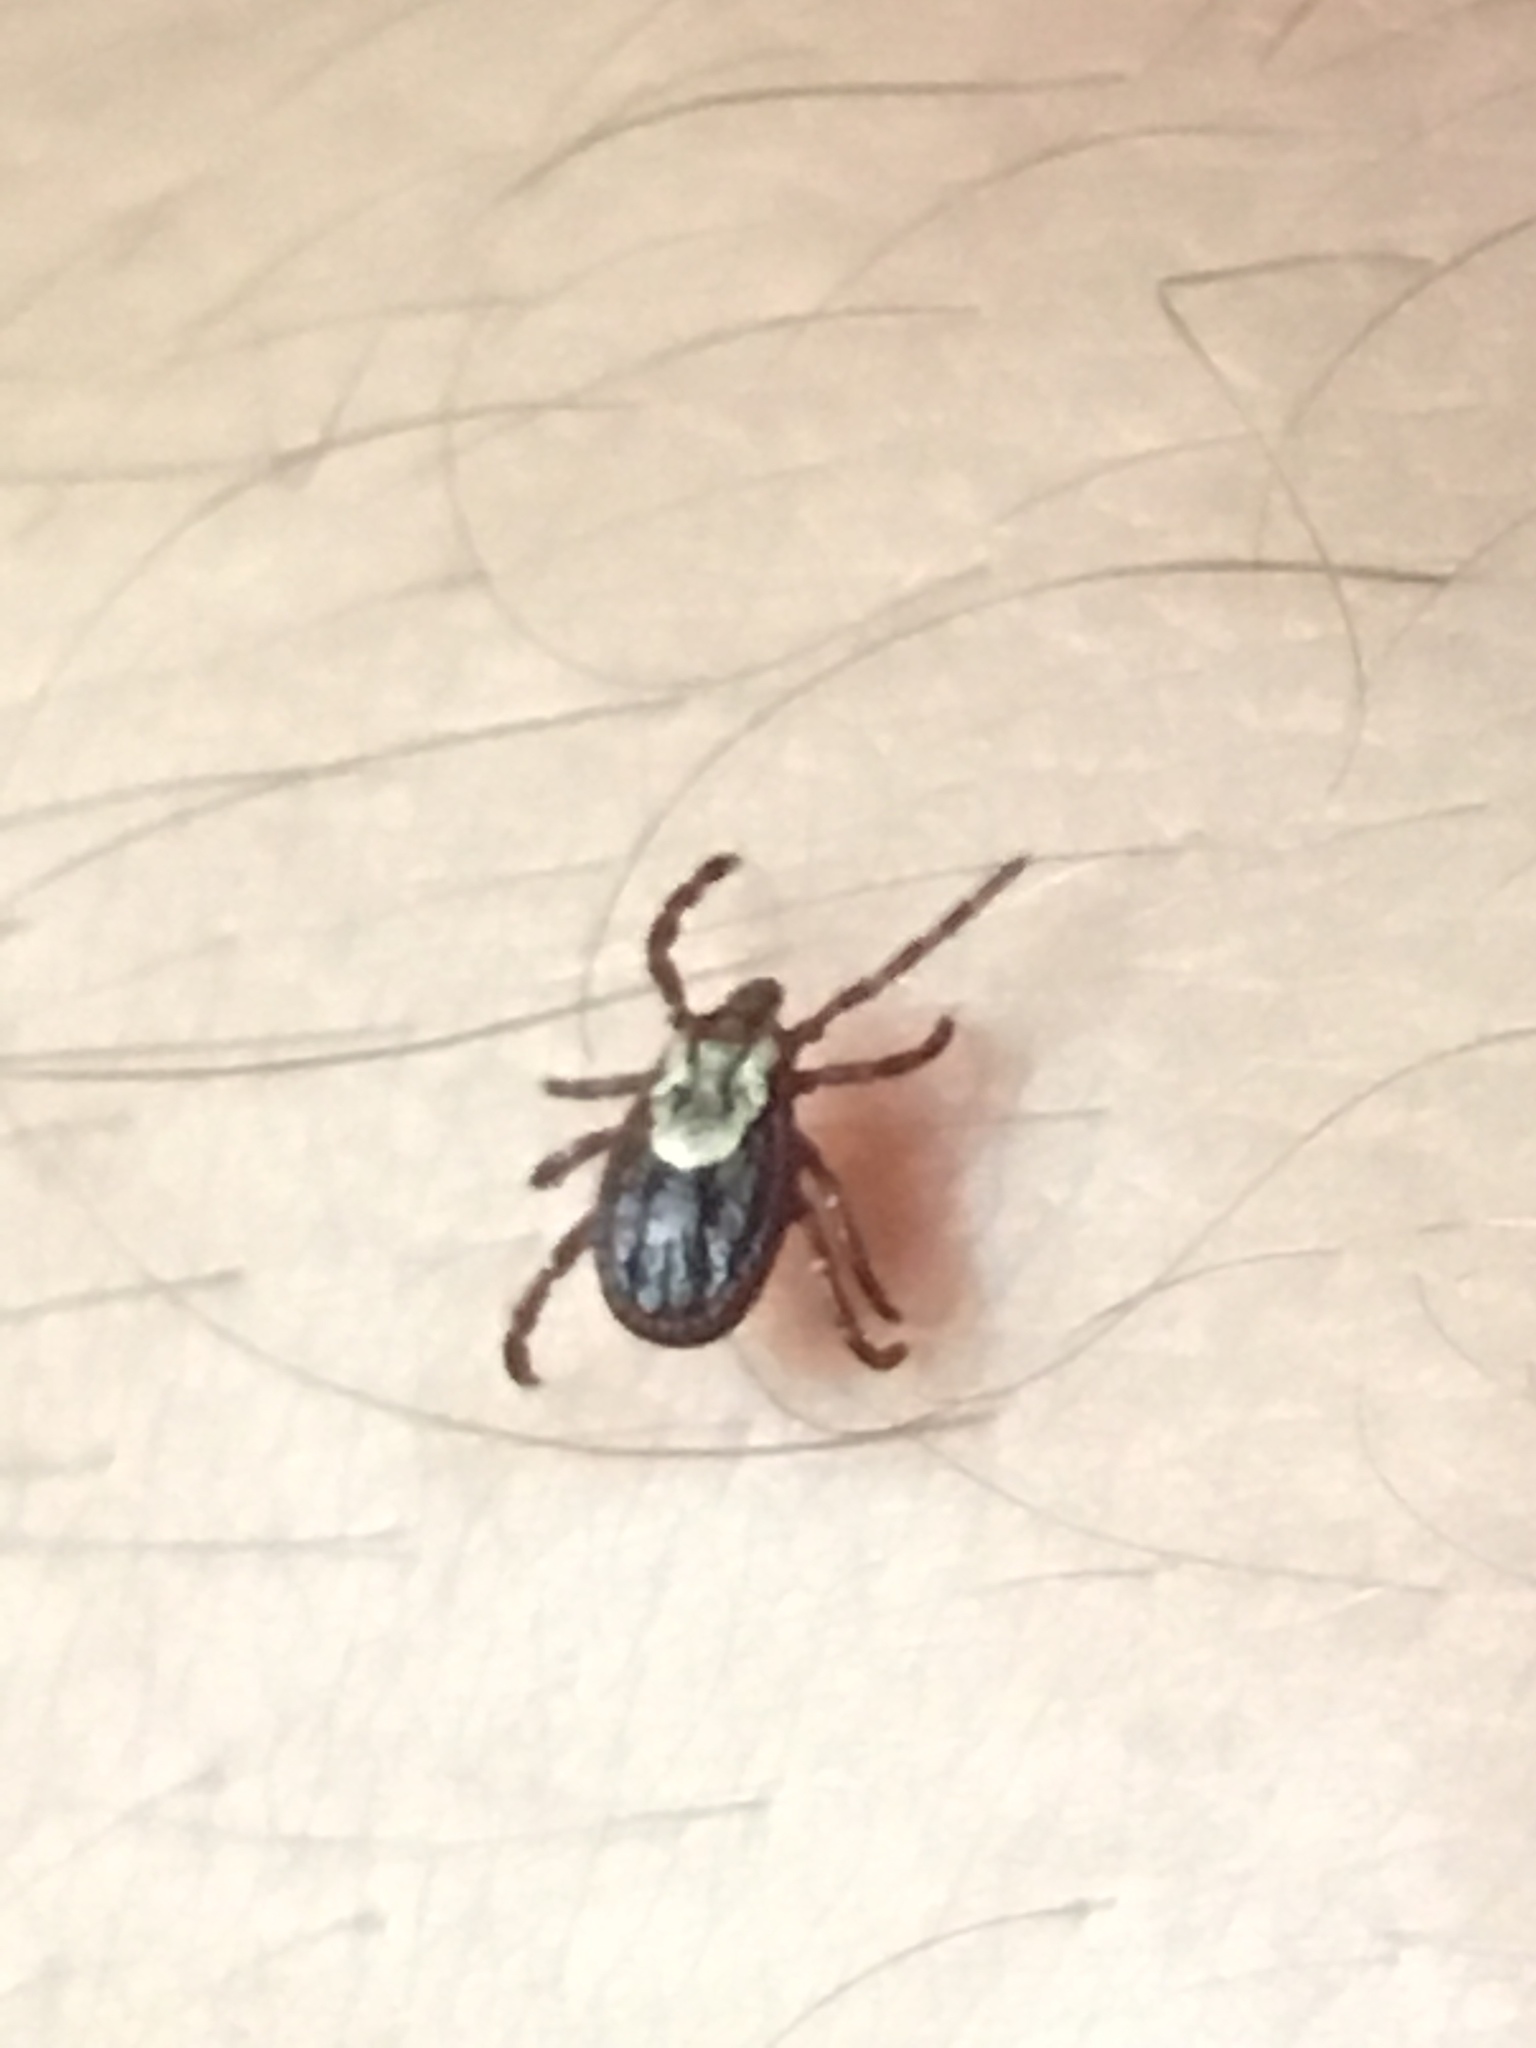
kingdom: Animalia
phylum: Arthropoda
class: Arachnida
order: Ixodida
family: Ixodidae
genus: Dermacentor
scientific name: Dermacentor variabilis
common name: American dog tick
